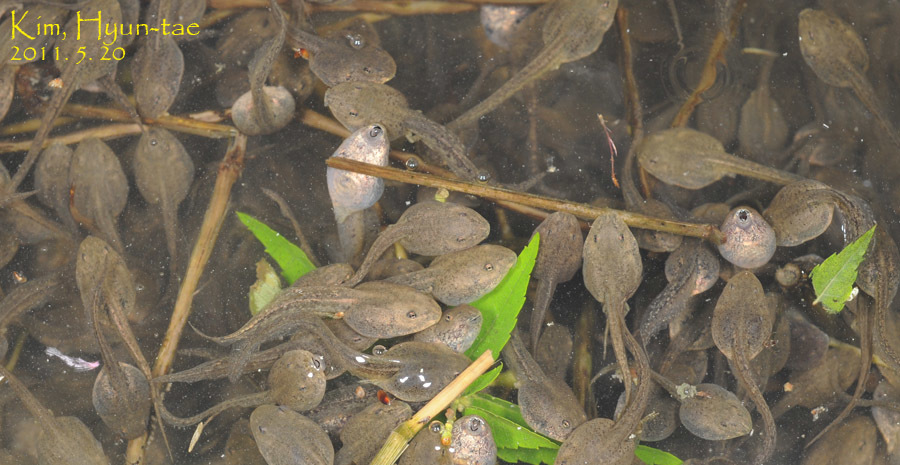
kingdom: Animalia
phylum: Chordata
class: Amphibia
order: Anura
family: Ranidae
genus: Rana
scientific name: Rana uenoi
